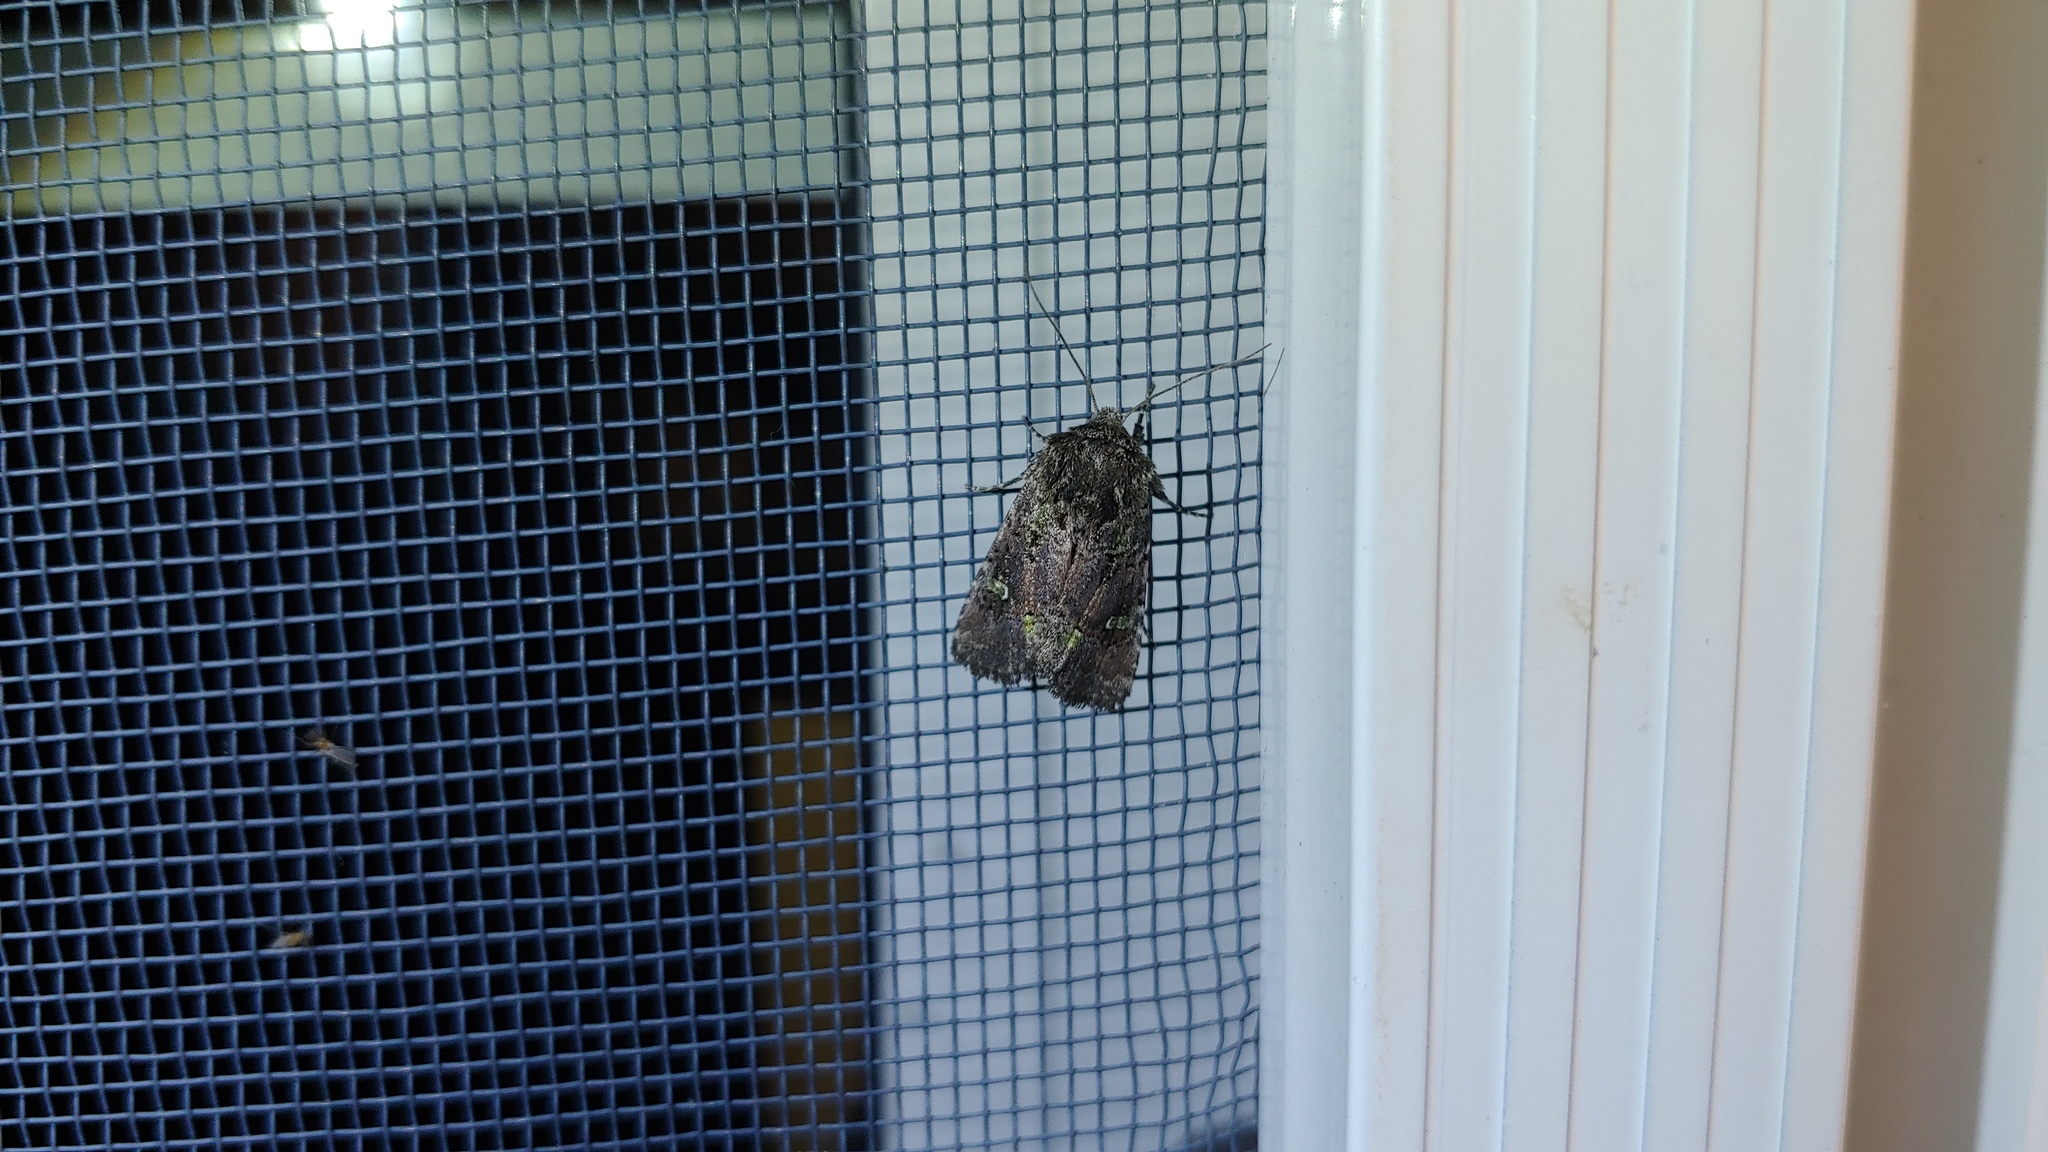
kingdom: Animalia
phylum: Arthropoda
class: Insecta
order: Lepidoptera
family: Noctuidae
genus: Lacinipolia
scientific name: Lacinipolia renigera
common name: Kidney-spotted minor
